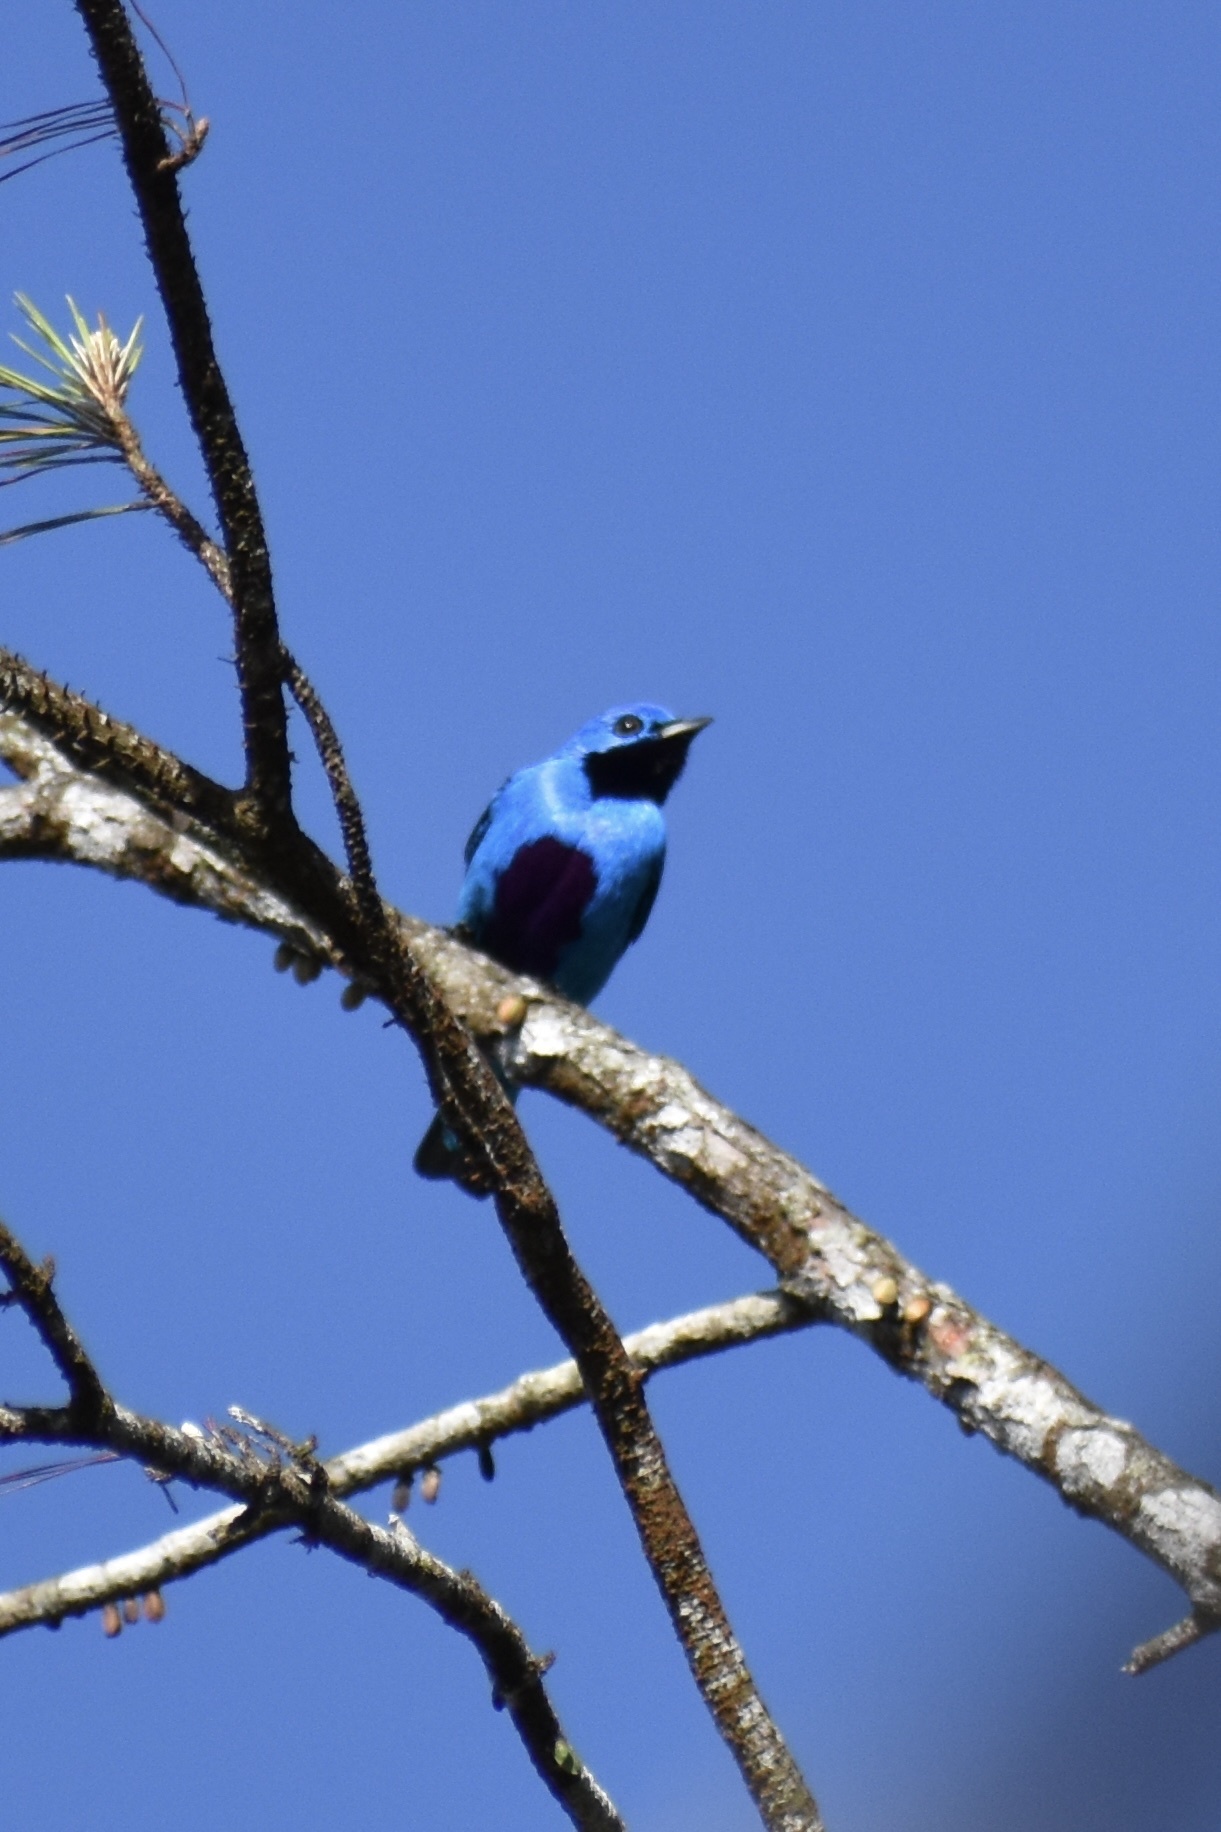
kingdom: Animalia
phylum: Chordata
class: Aves
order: Passeriformes
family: Cotingidae
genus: Cotinga
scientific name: Cotinga nattererii
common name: Blue cotinga
